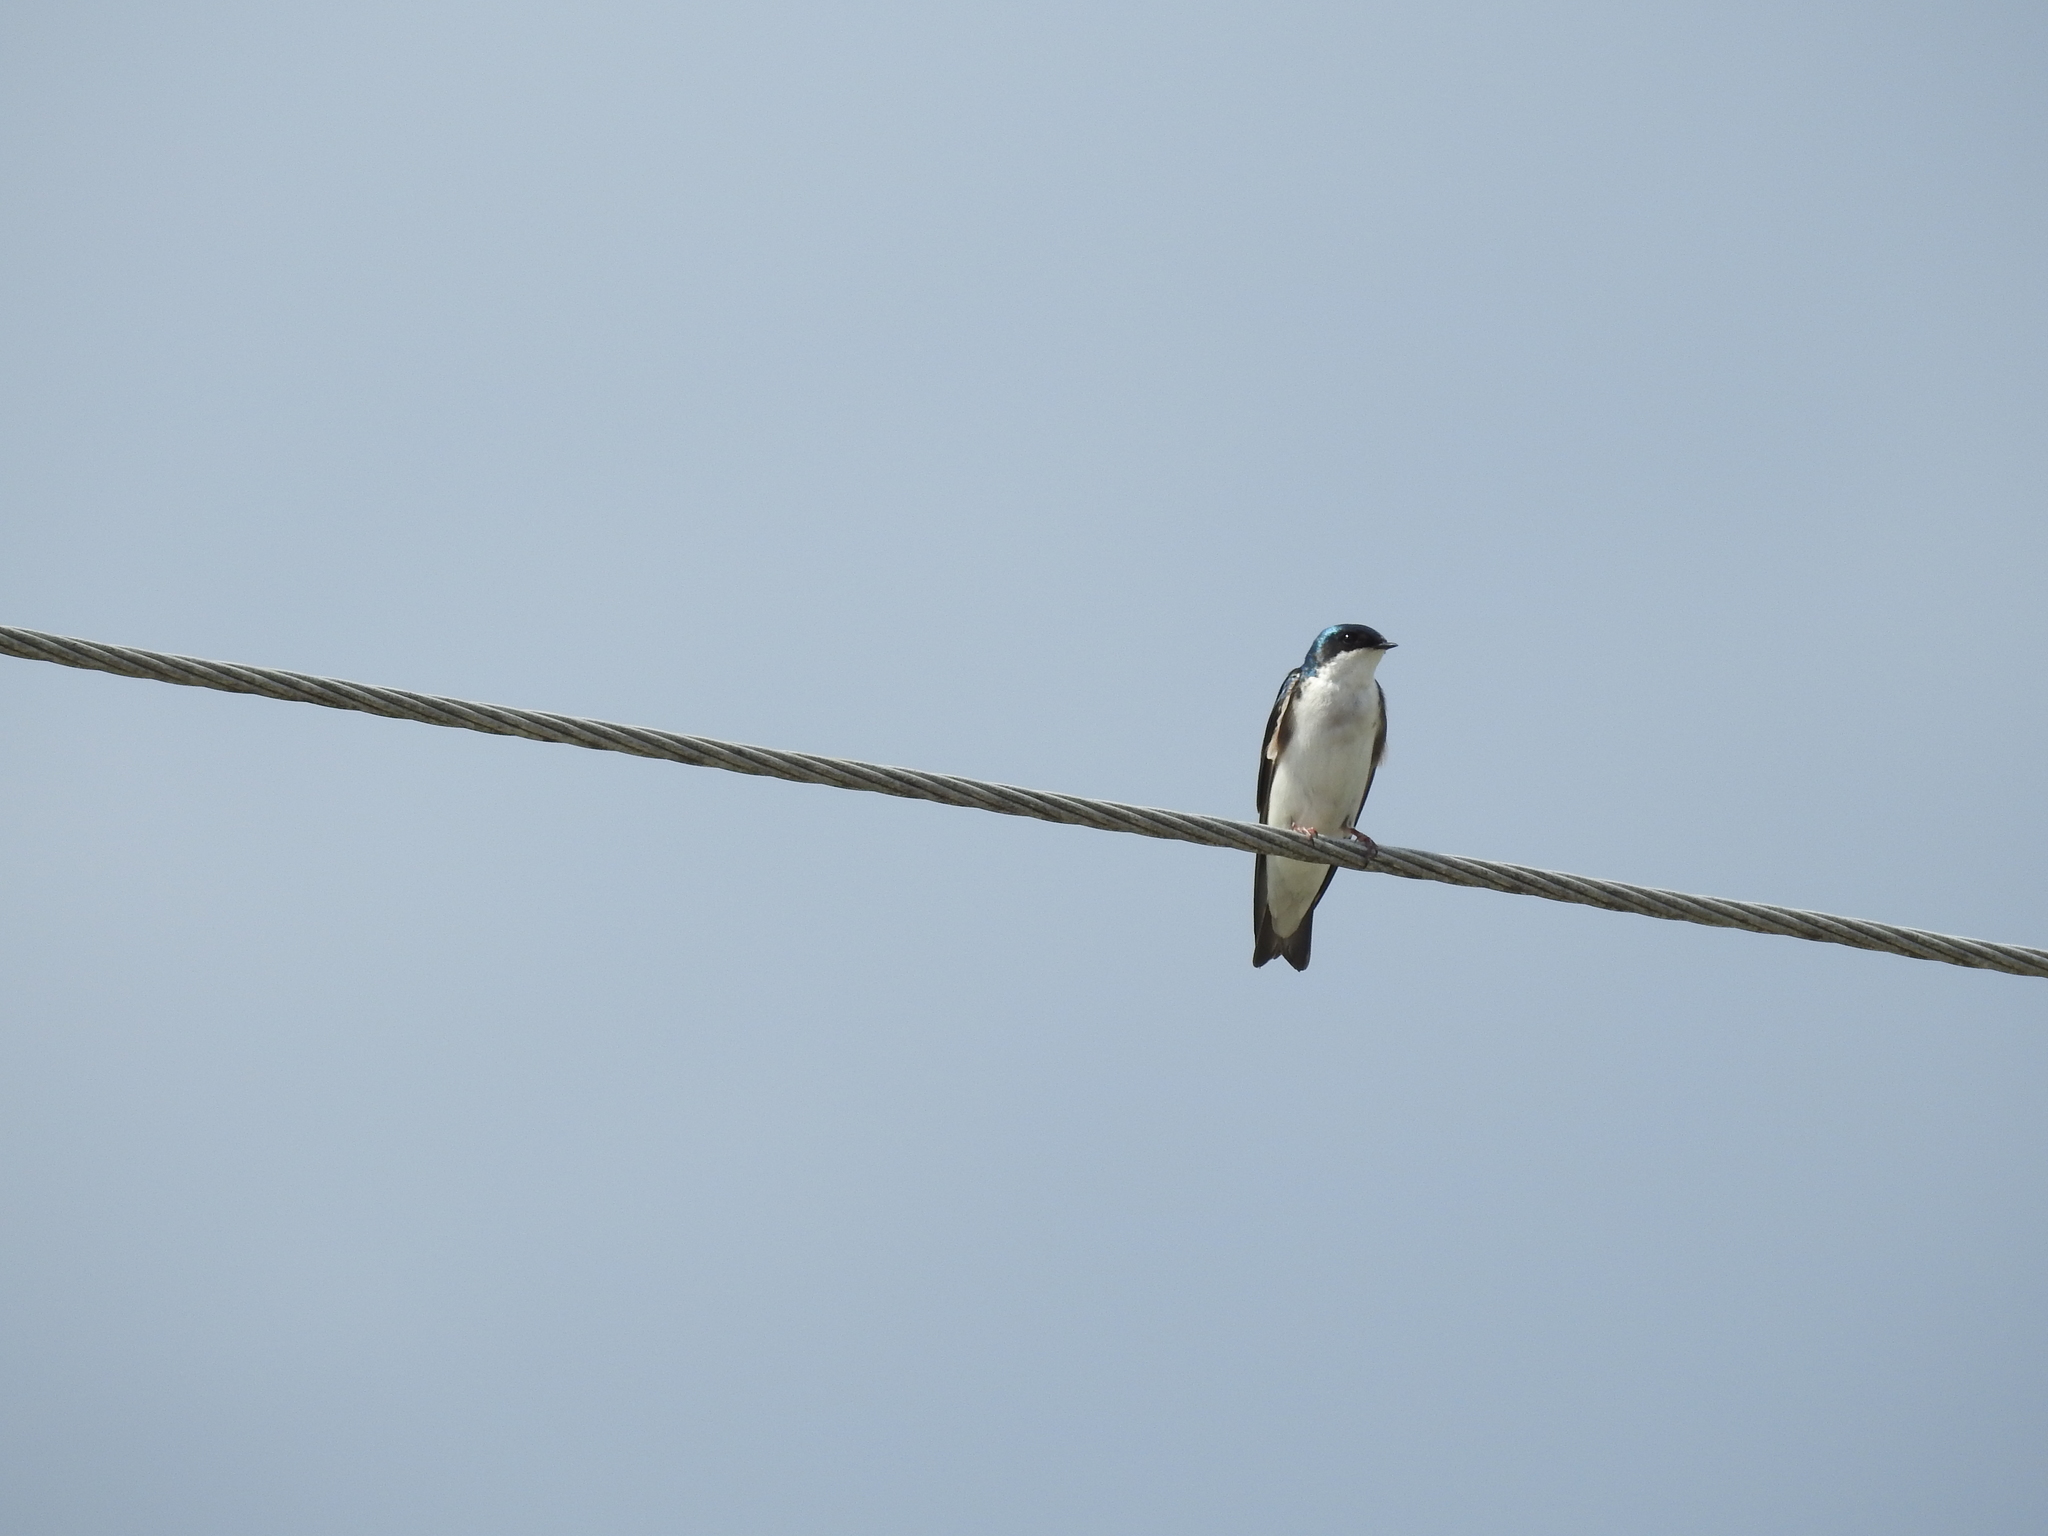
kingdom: Animalia
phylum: Chordata
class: Aves
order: Passeriformes
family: Hirundinidae
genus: Tachycineta
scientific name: Tachycineta bicolor
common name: Tree swallow
